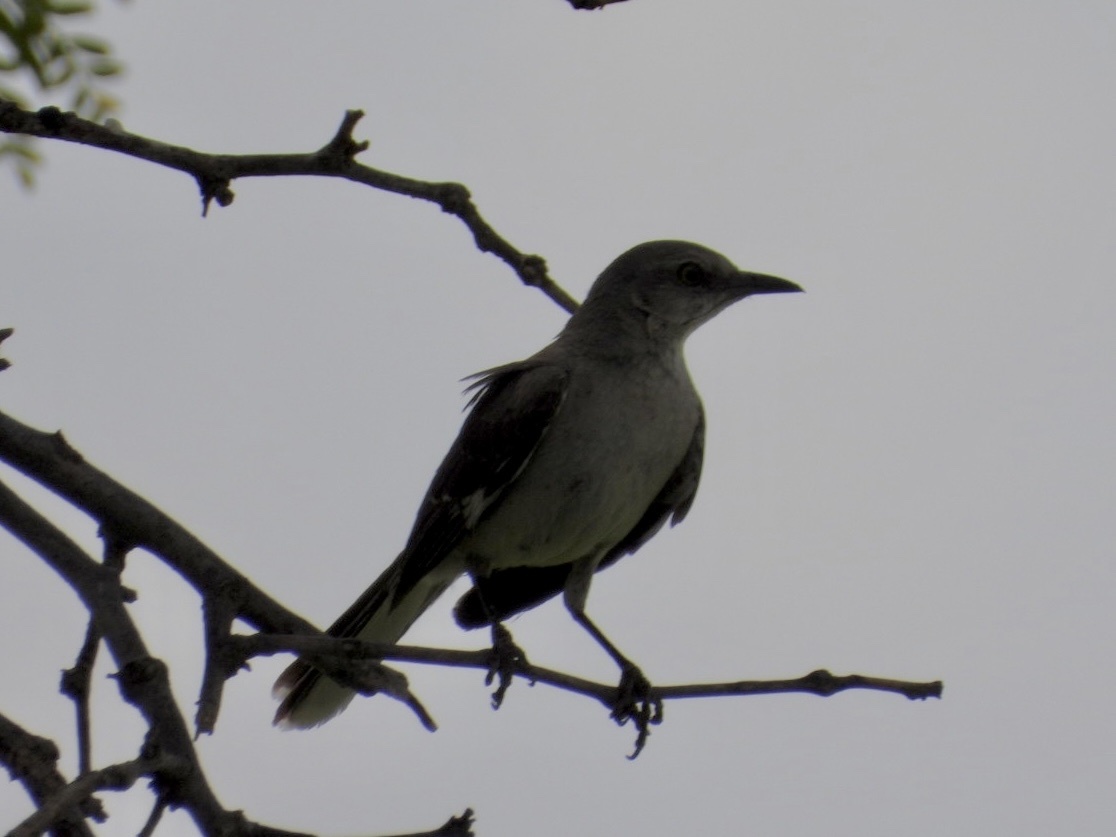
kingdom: Animalia
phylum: Chordata
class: Aves
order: Passeriformes
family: Mimidae
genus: Mimus
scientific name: Mimus polyglottos
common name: Northern mockingbird
